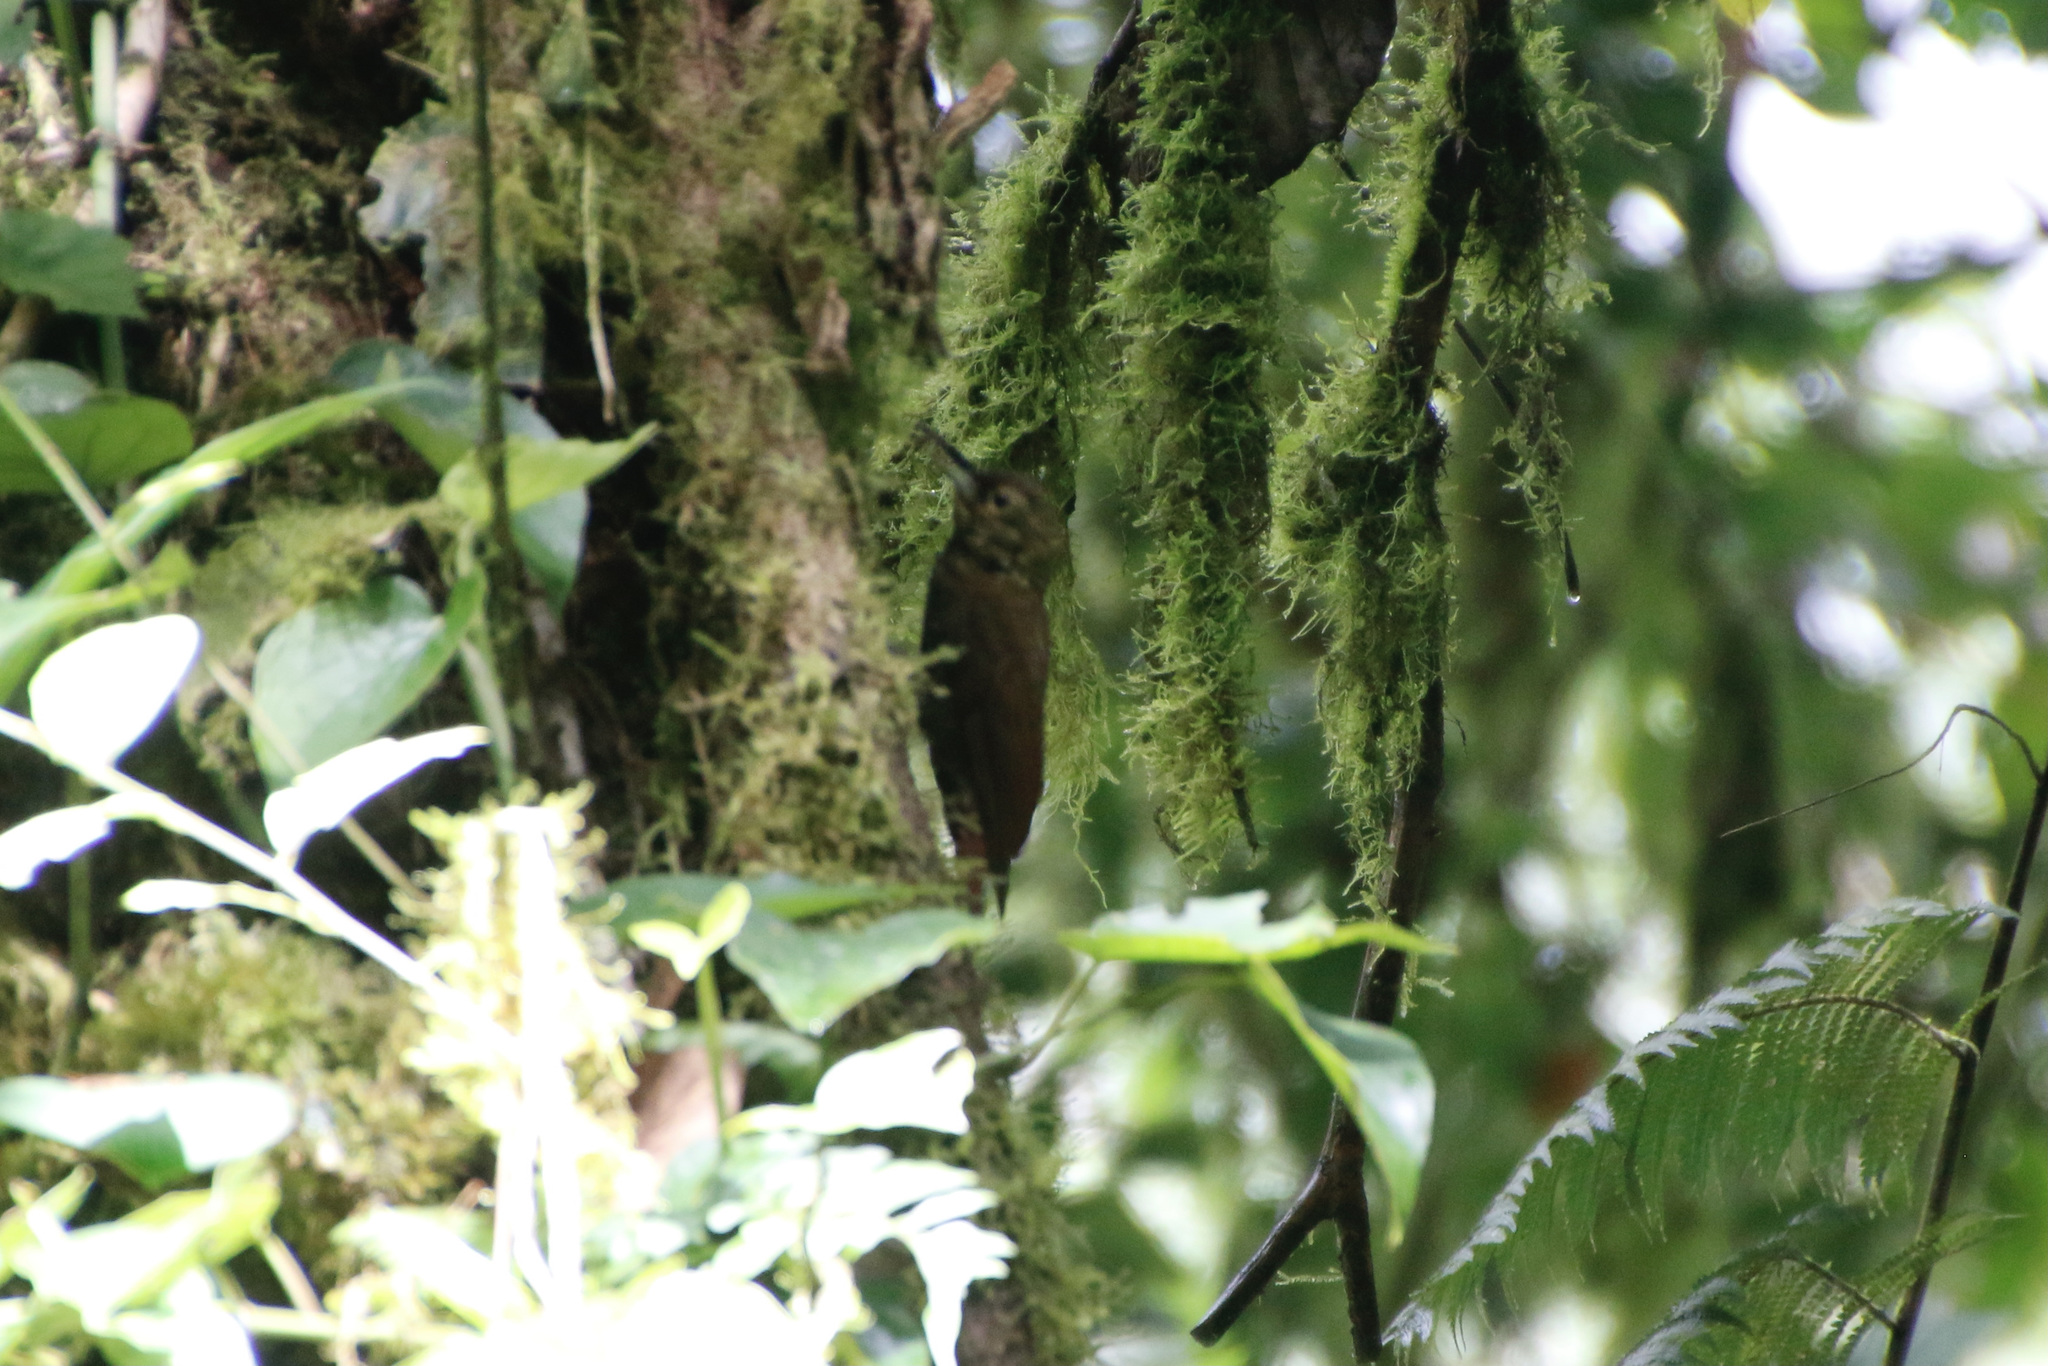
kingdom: Animalia
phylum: Chordata
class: Aves
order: Passeriformes
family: Furnariidae
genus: Xiphorhynchus
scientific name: Xiphorhynchus erythropygius
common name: Spotted woodcreeper
